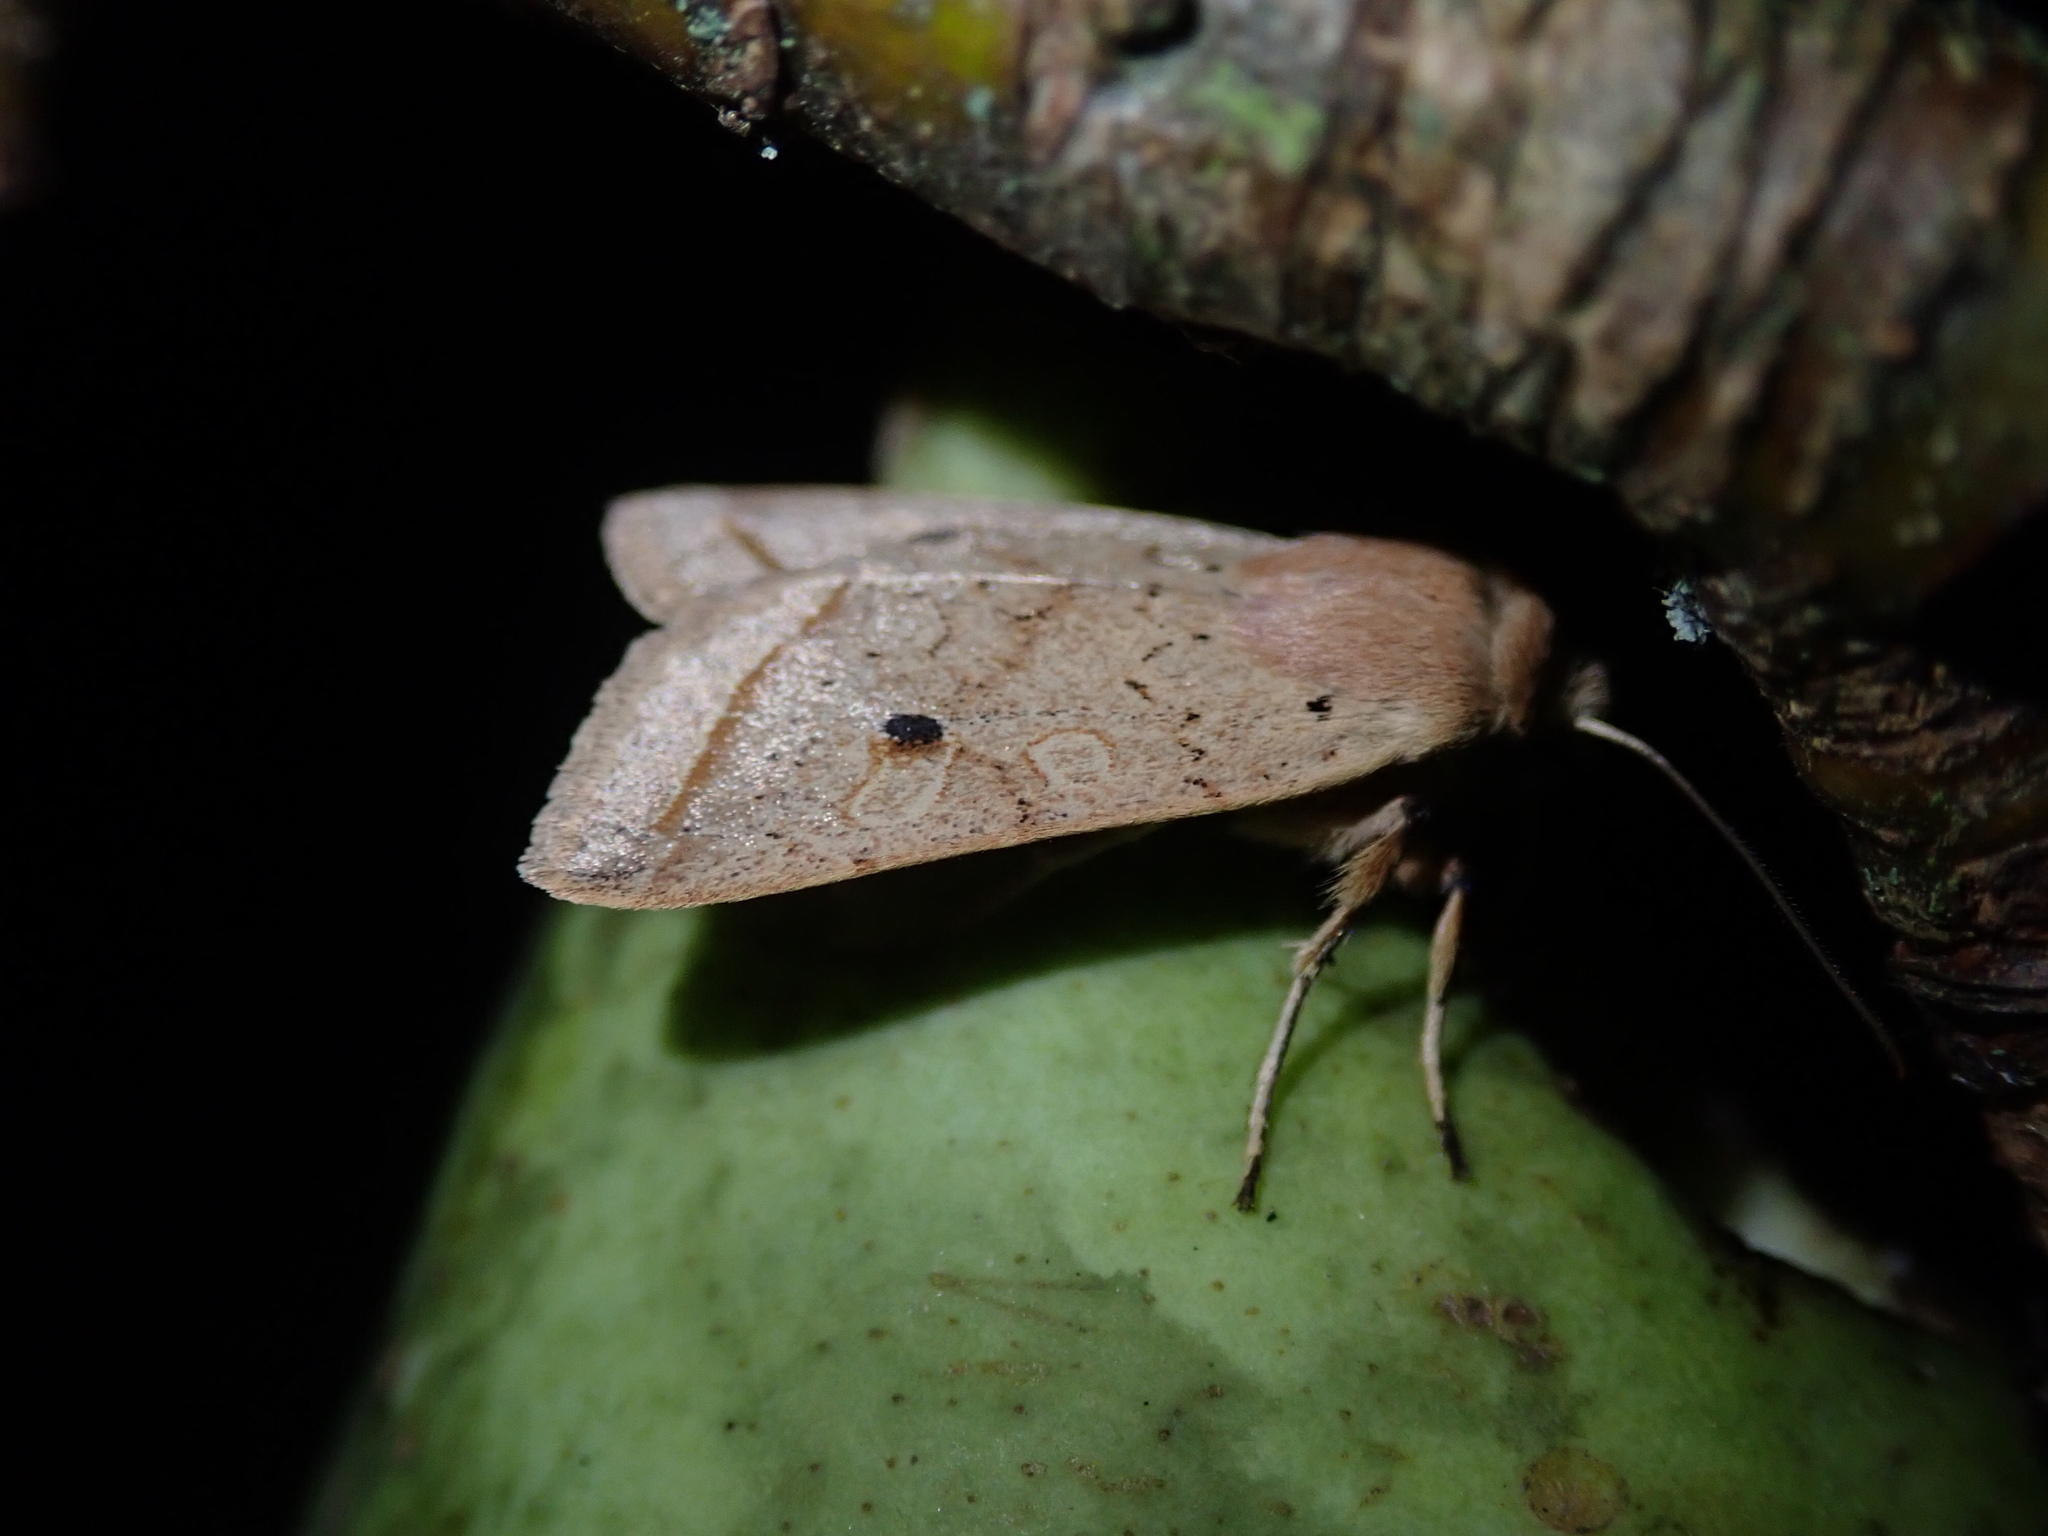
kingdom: Animalia
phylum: Arthropoda
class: Insecta
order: Lepidoptera
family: Noctuidae
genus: Agrochola
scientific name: Agrochola macilenta
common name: Yellow-line quaker
